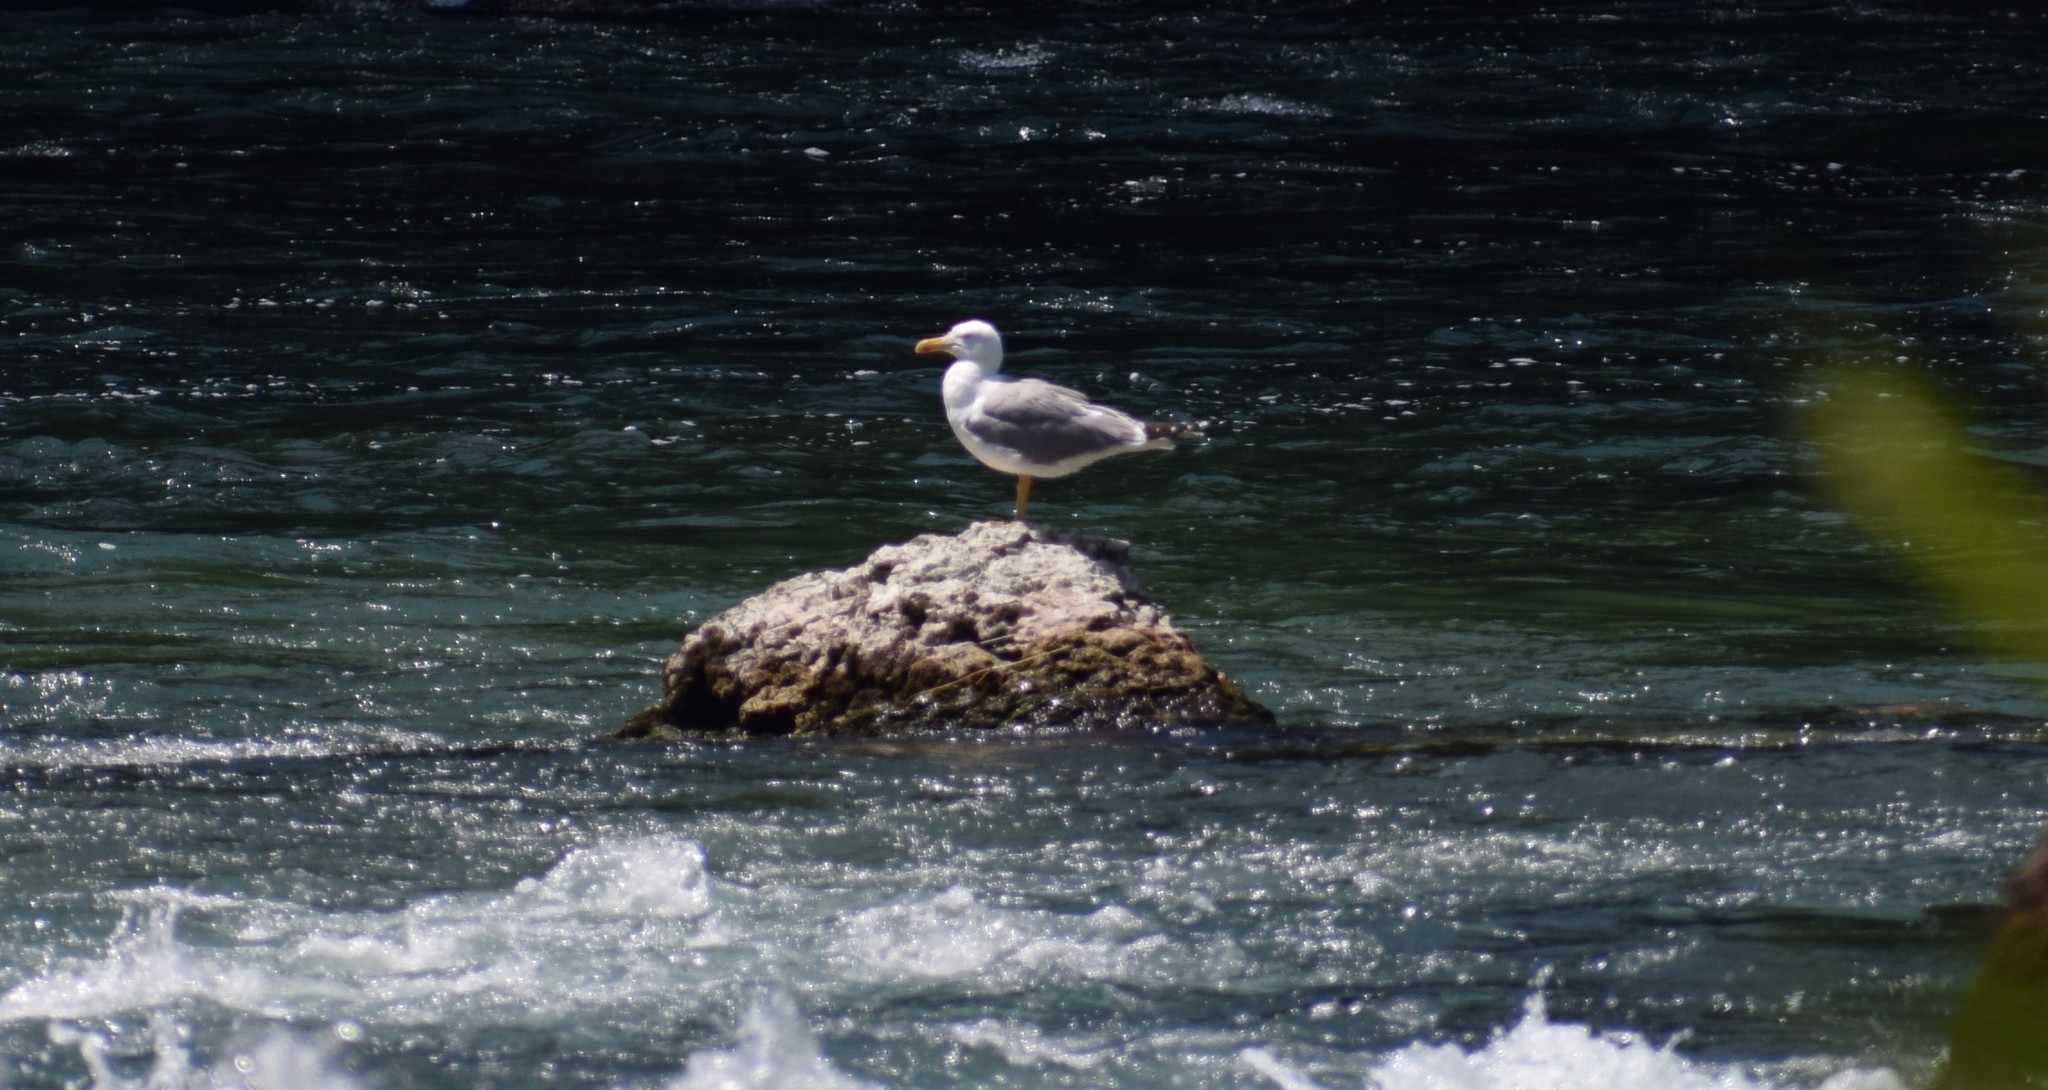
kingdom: Animalia
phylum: Chordata
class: Aves
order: Charadriiformes
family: Laridae
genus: Larus
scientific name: Larus michahellis
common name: Yellow-legged gull
